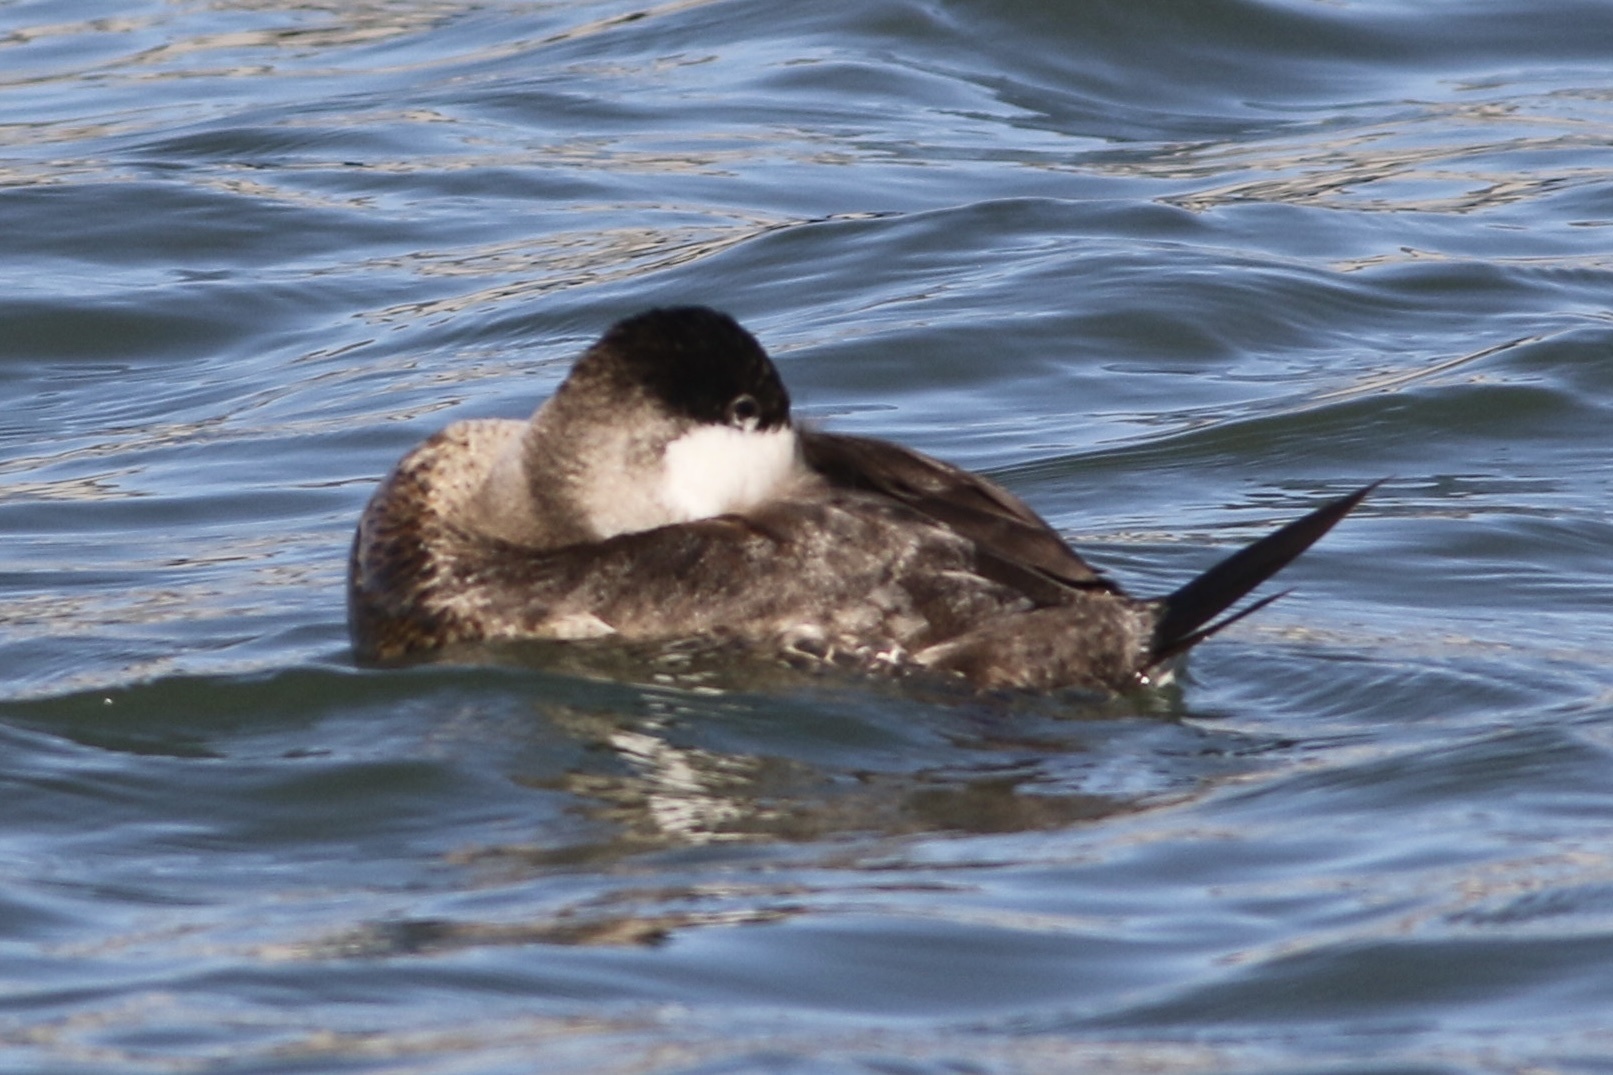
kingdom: Animalia
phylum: Chordata
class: Aves
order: Anseriformes
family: Anatidae
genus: Oxyura
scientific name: Oxyura jamaicensis
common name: Ruddy duck
